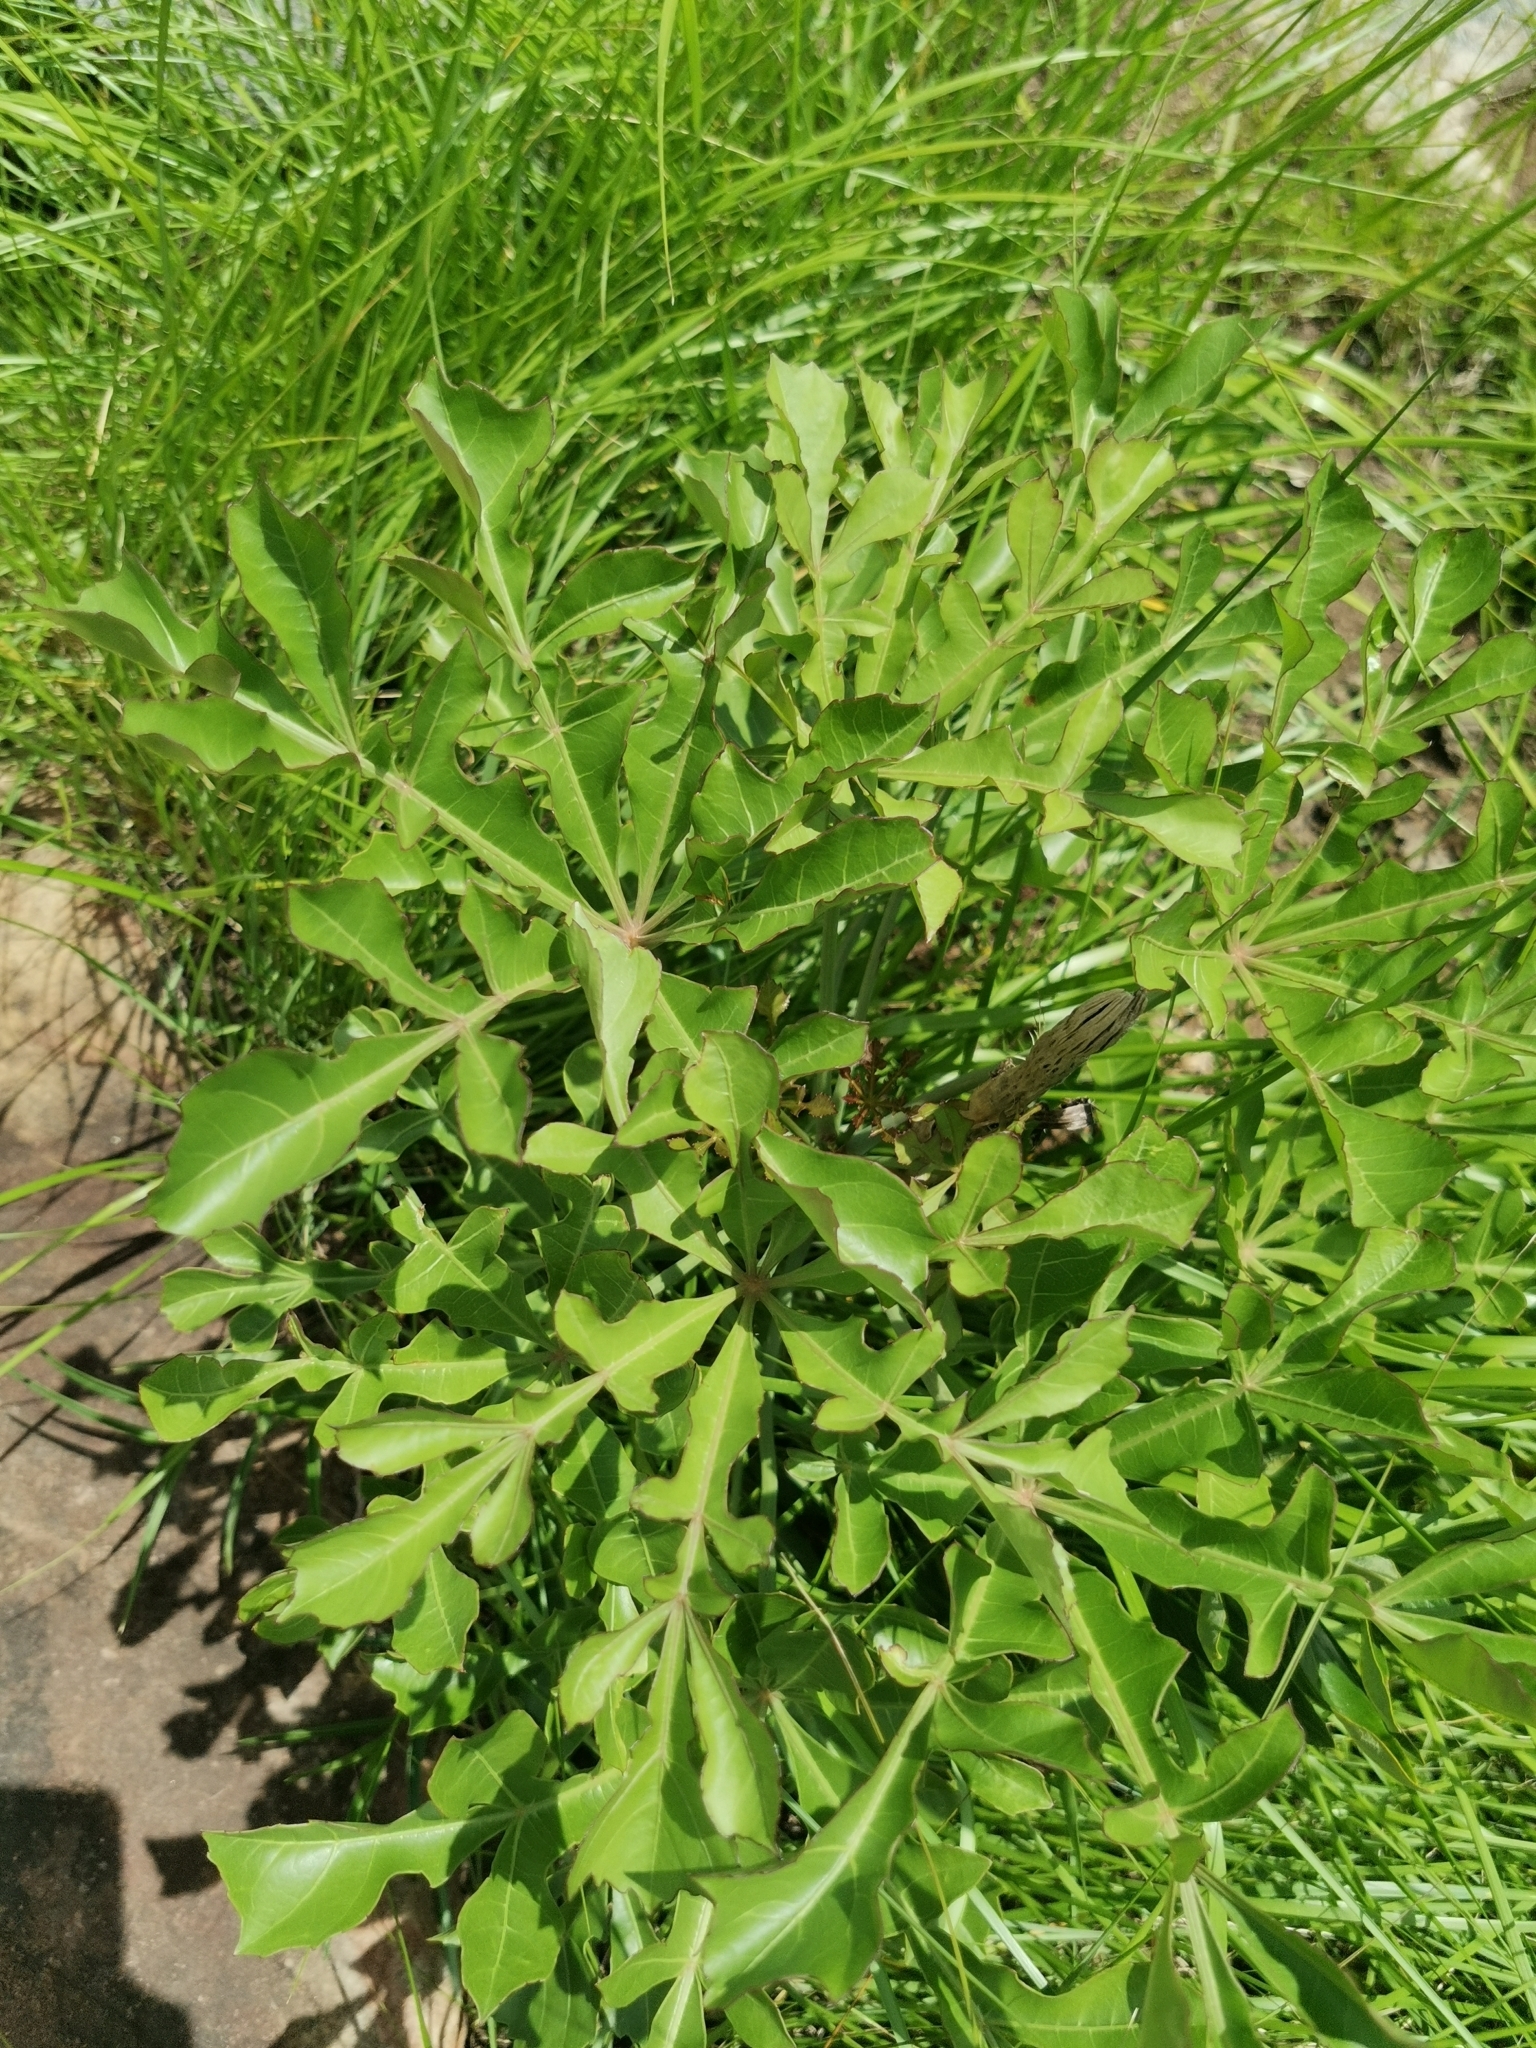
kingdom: Plantae
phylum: Tracheophyta
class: Magnoliopsida
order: Apiales
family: Araliaceae
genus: Cussonia
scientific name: Cussonia spicata
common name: Common cabbagetree
